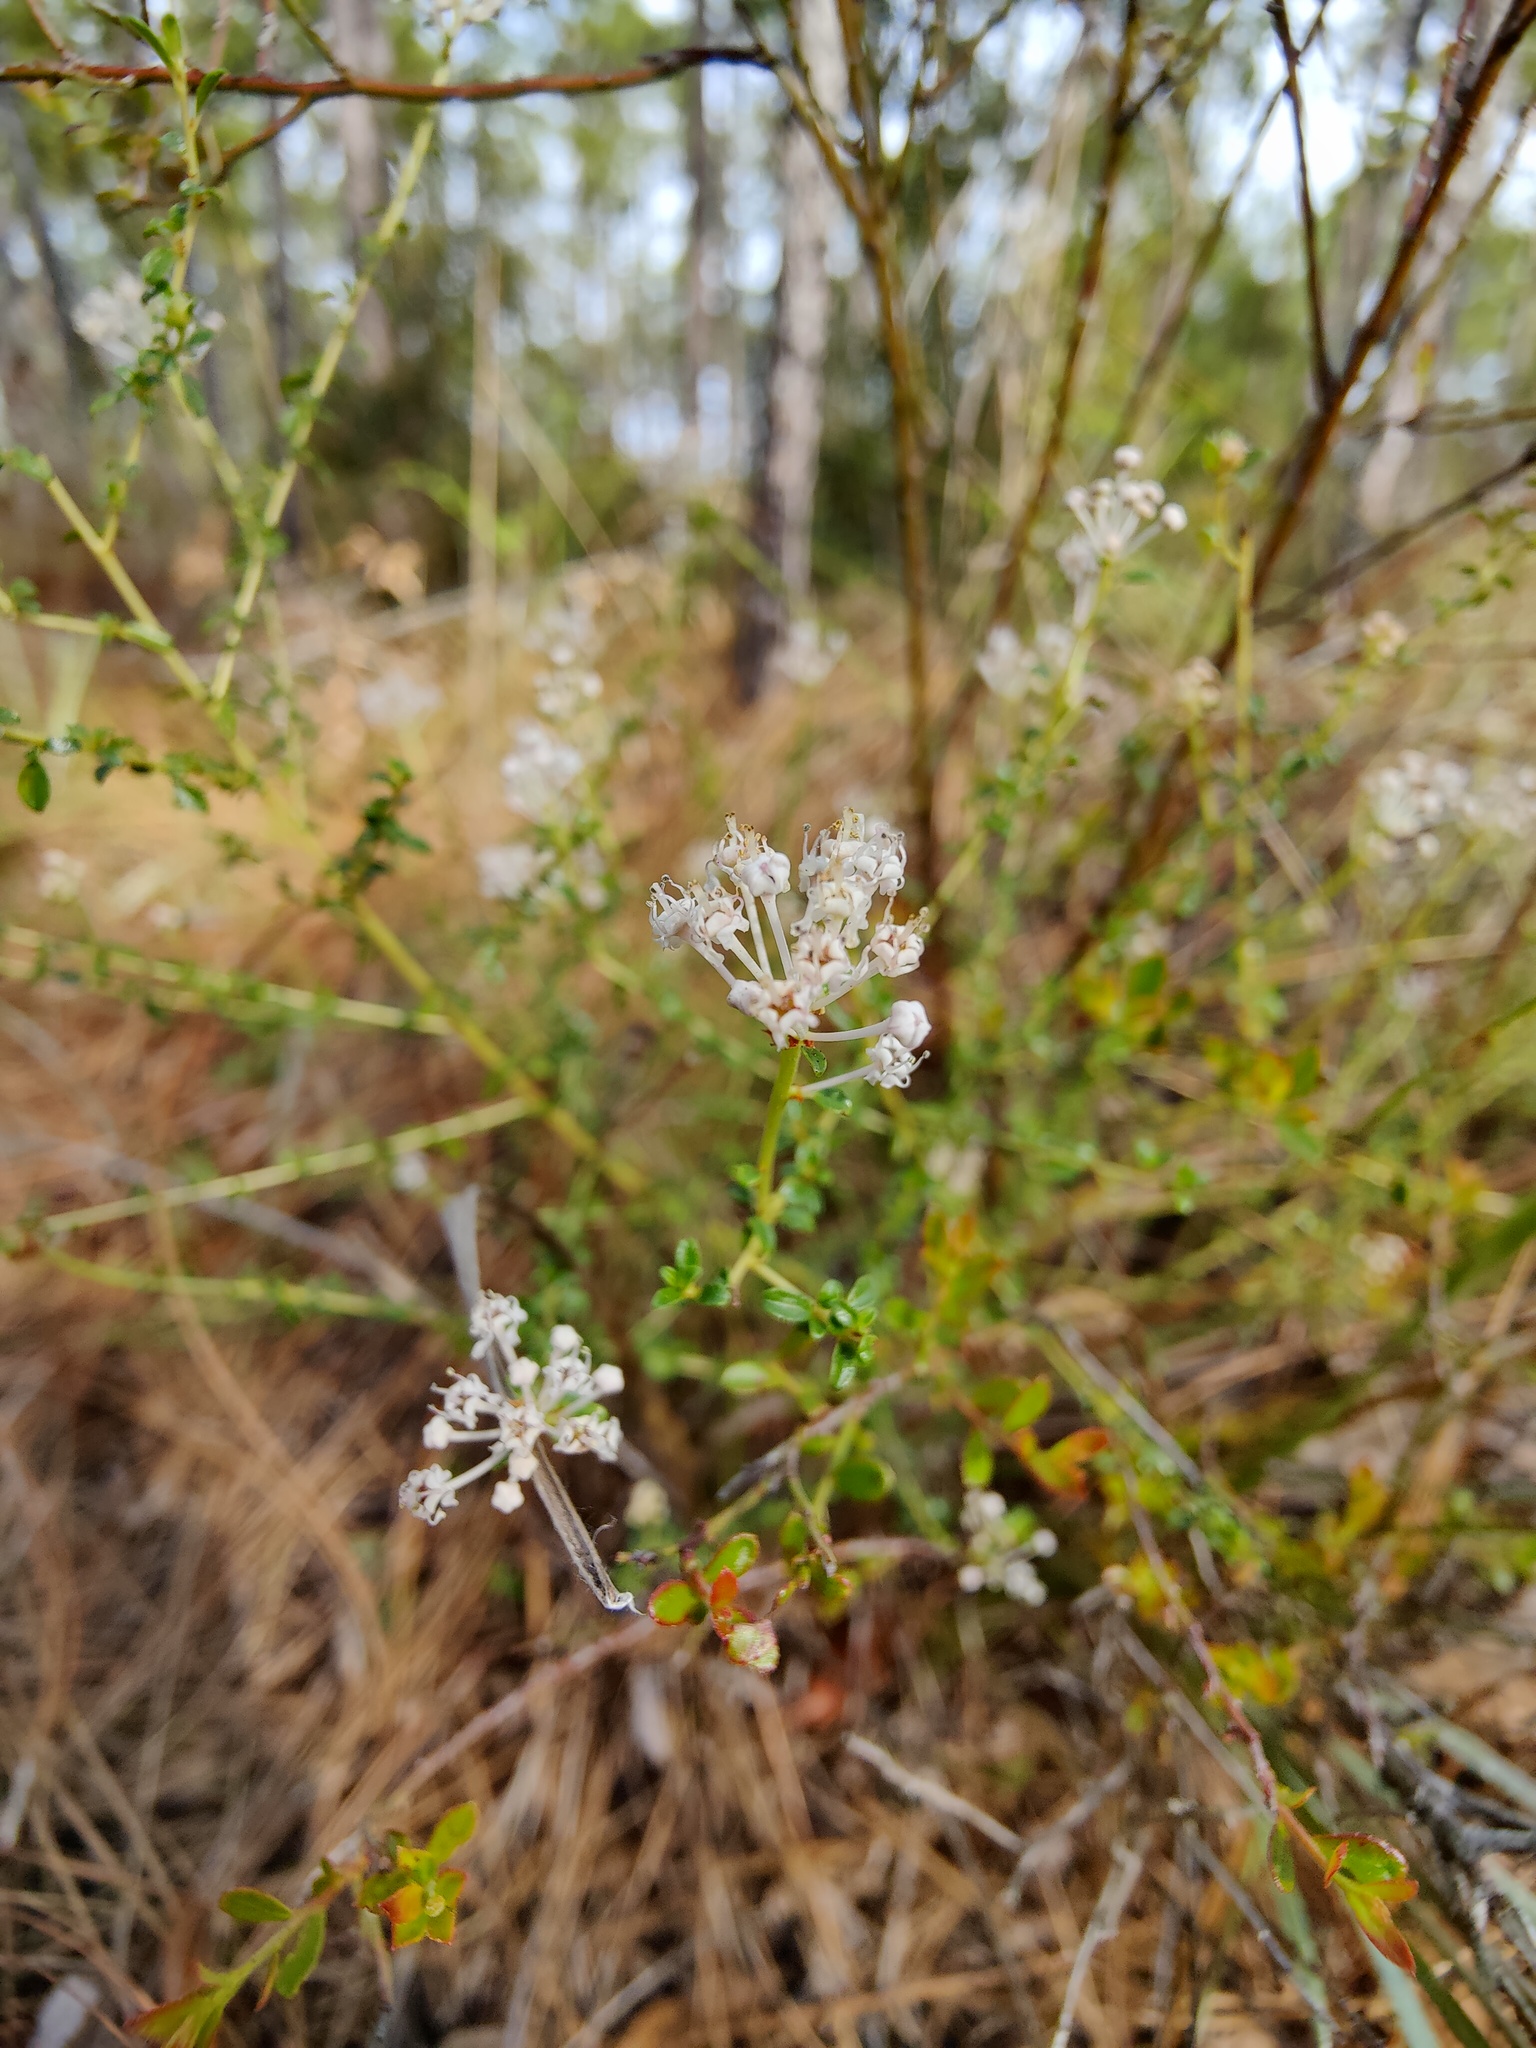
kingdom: Plantae
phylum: Tracheophyta
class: Magnoliopsida
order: Rosales
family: Rhamnaceae
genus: Ceanothus
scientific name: Ceanothus microphyllus
